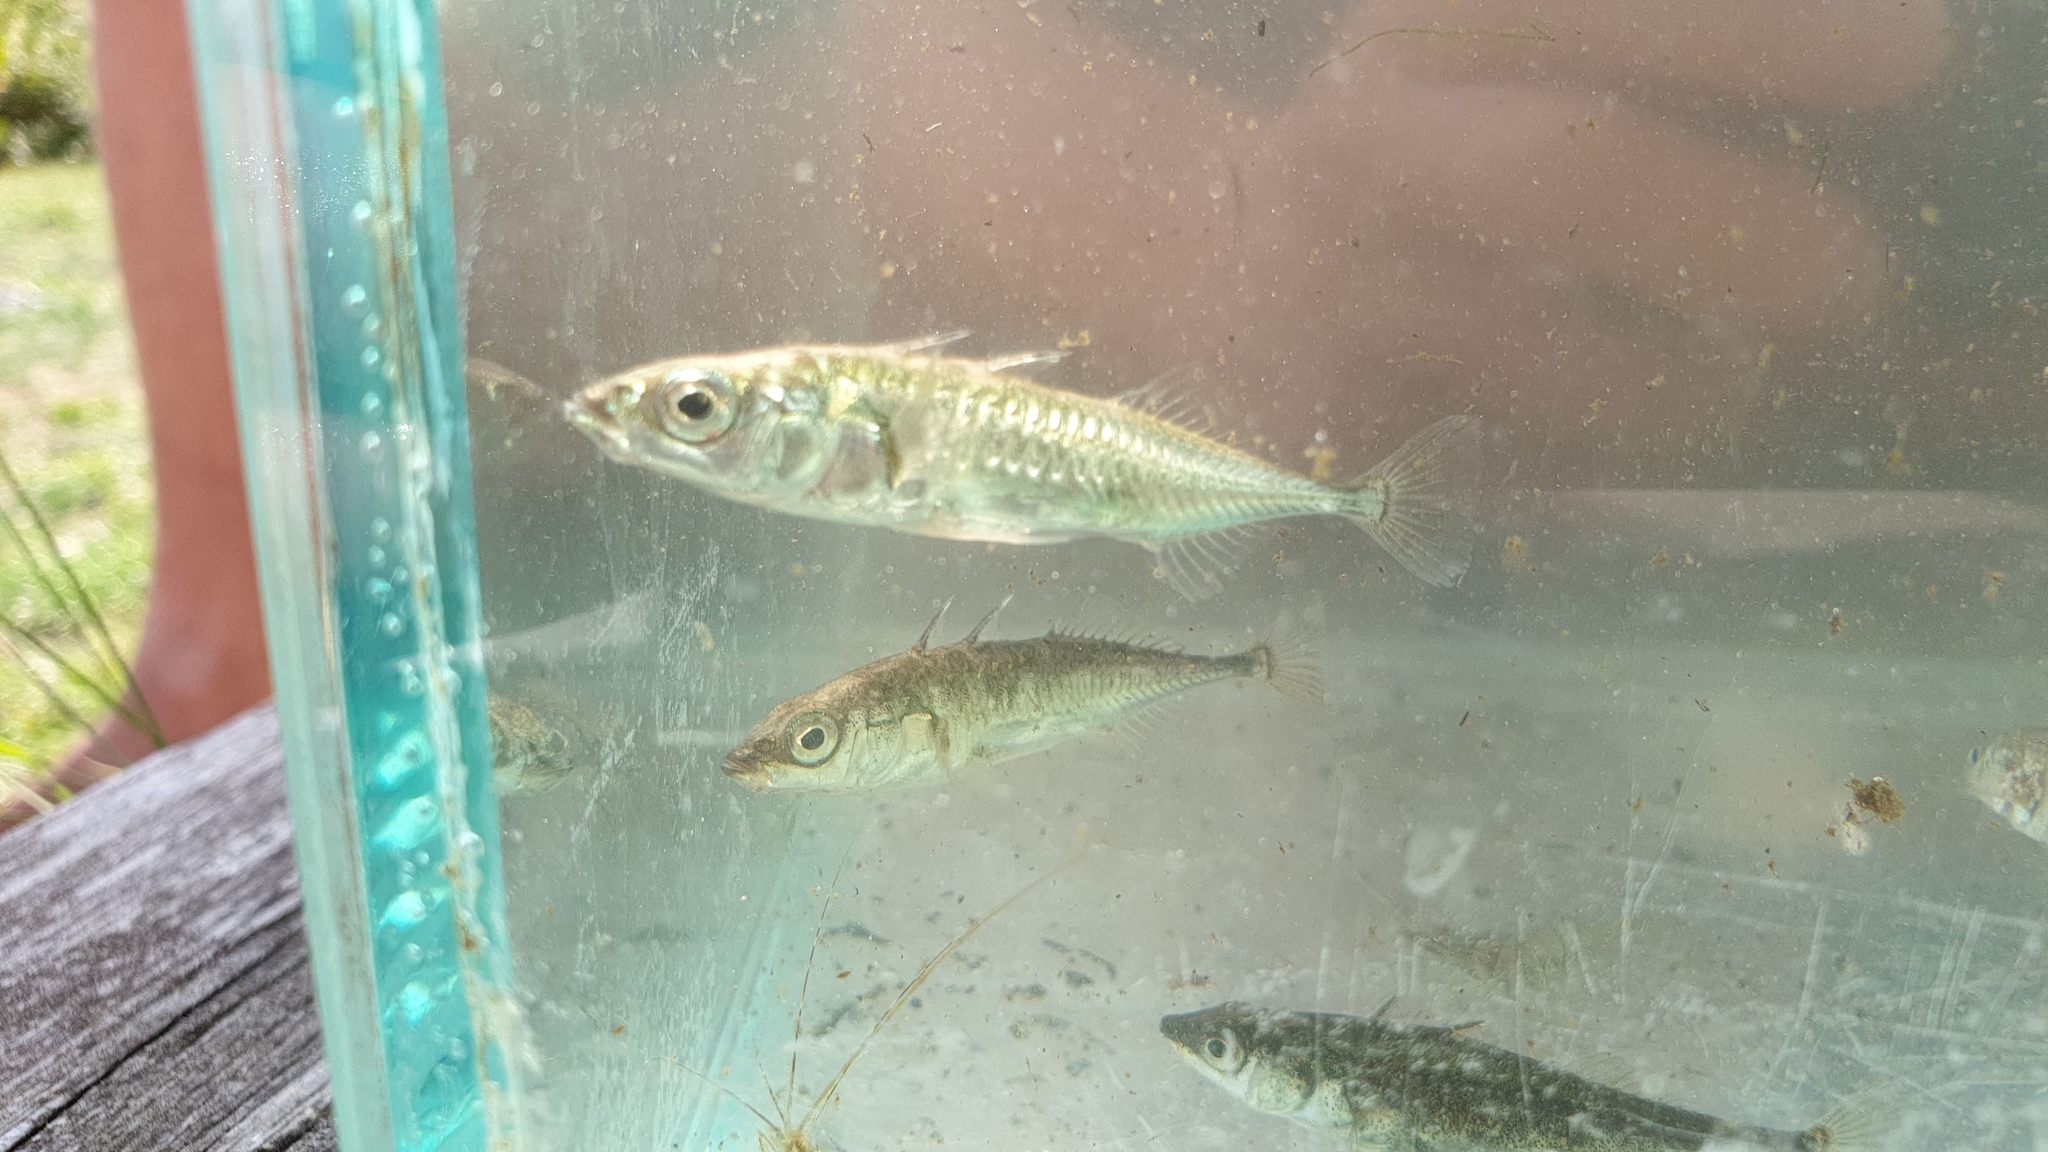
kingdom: Animalia
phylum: Chordata
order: Gasterosteiformes
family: Gasterosteidae
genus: Gasterosteus
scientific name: Gasterosteus aculeatus
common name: Three-spined stickleback
